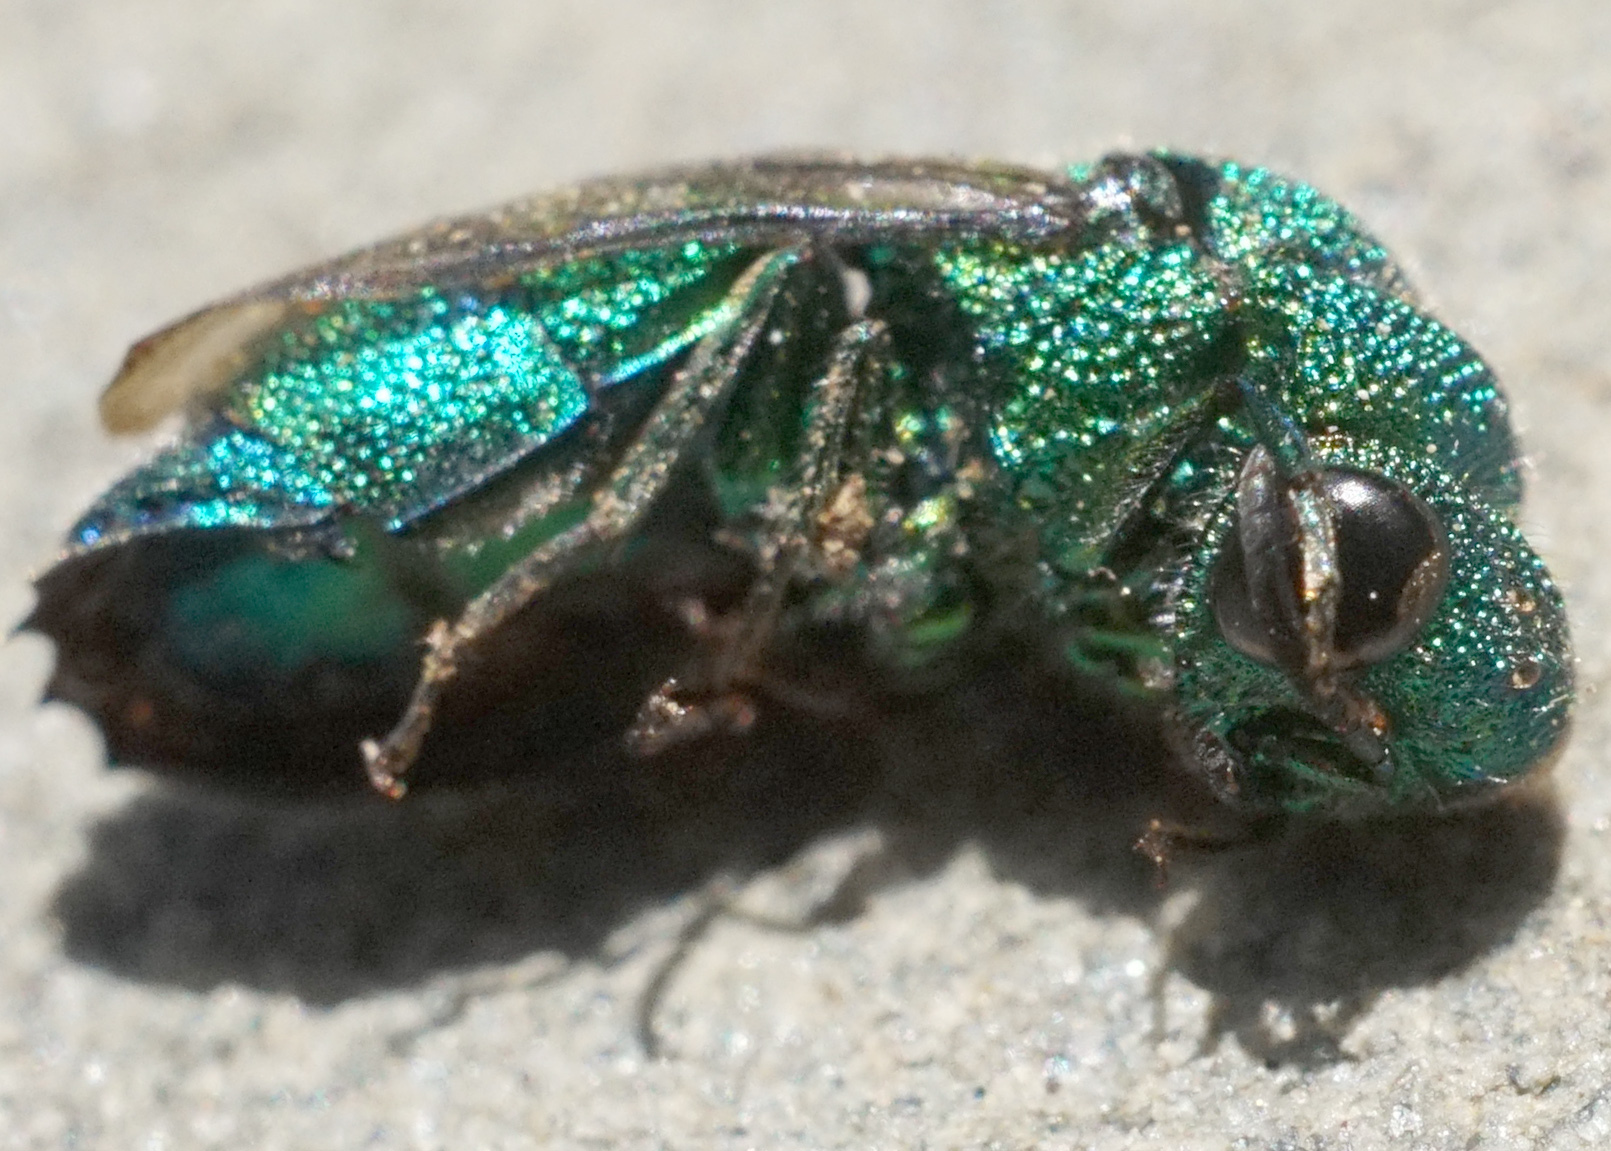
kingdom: Animalia
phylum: Arthropoda
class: Insecta
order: Hymenoptera
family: Chrysididae
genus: Chrysis
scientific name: Chrysis
